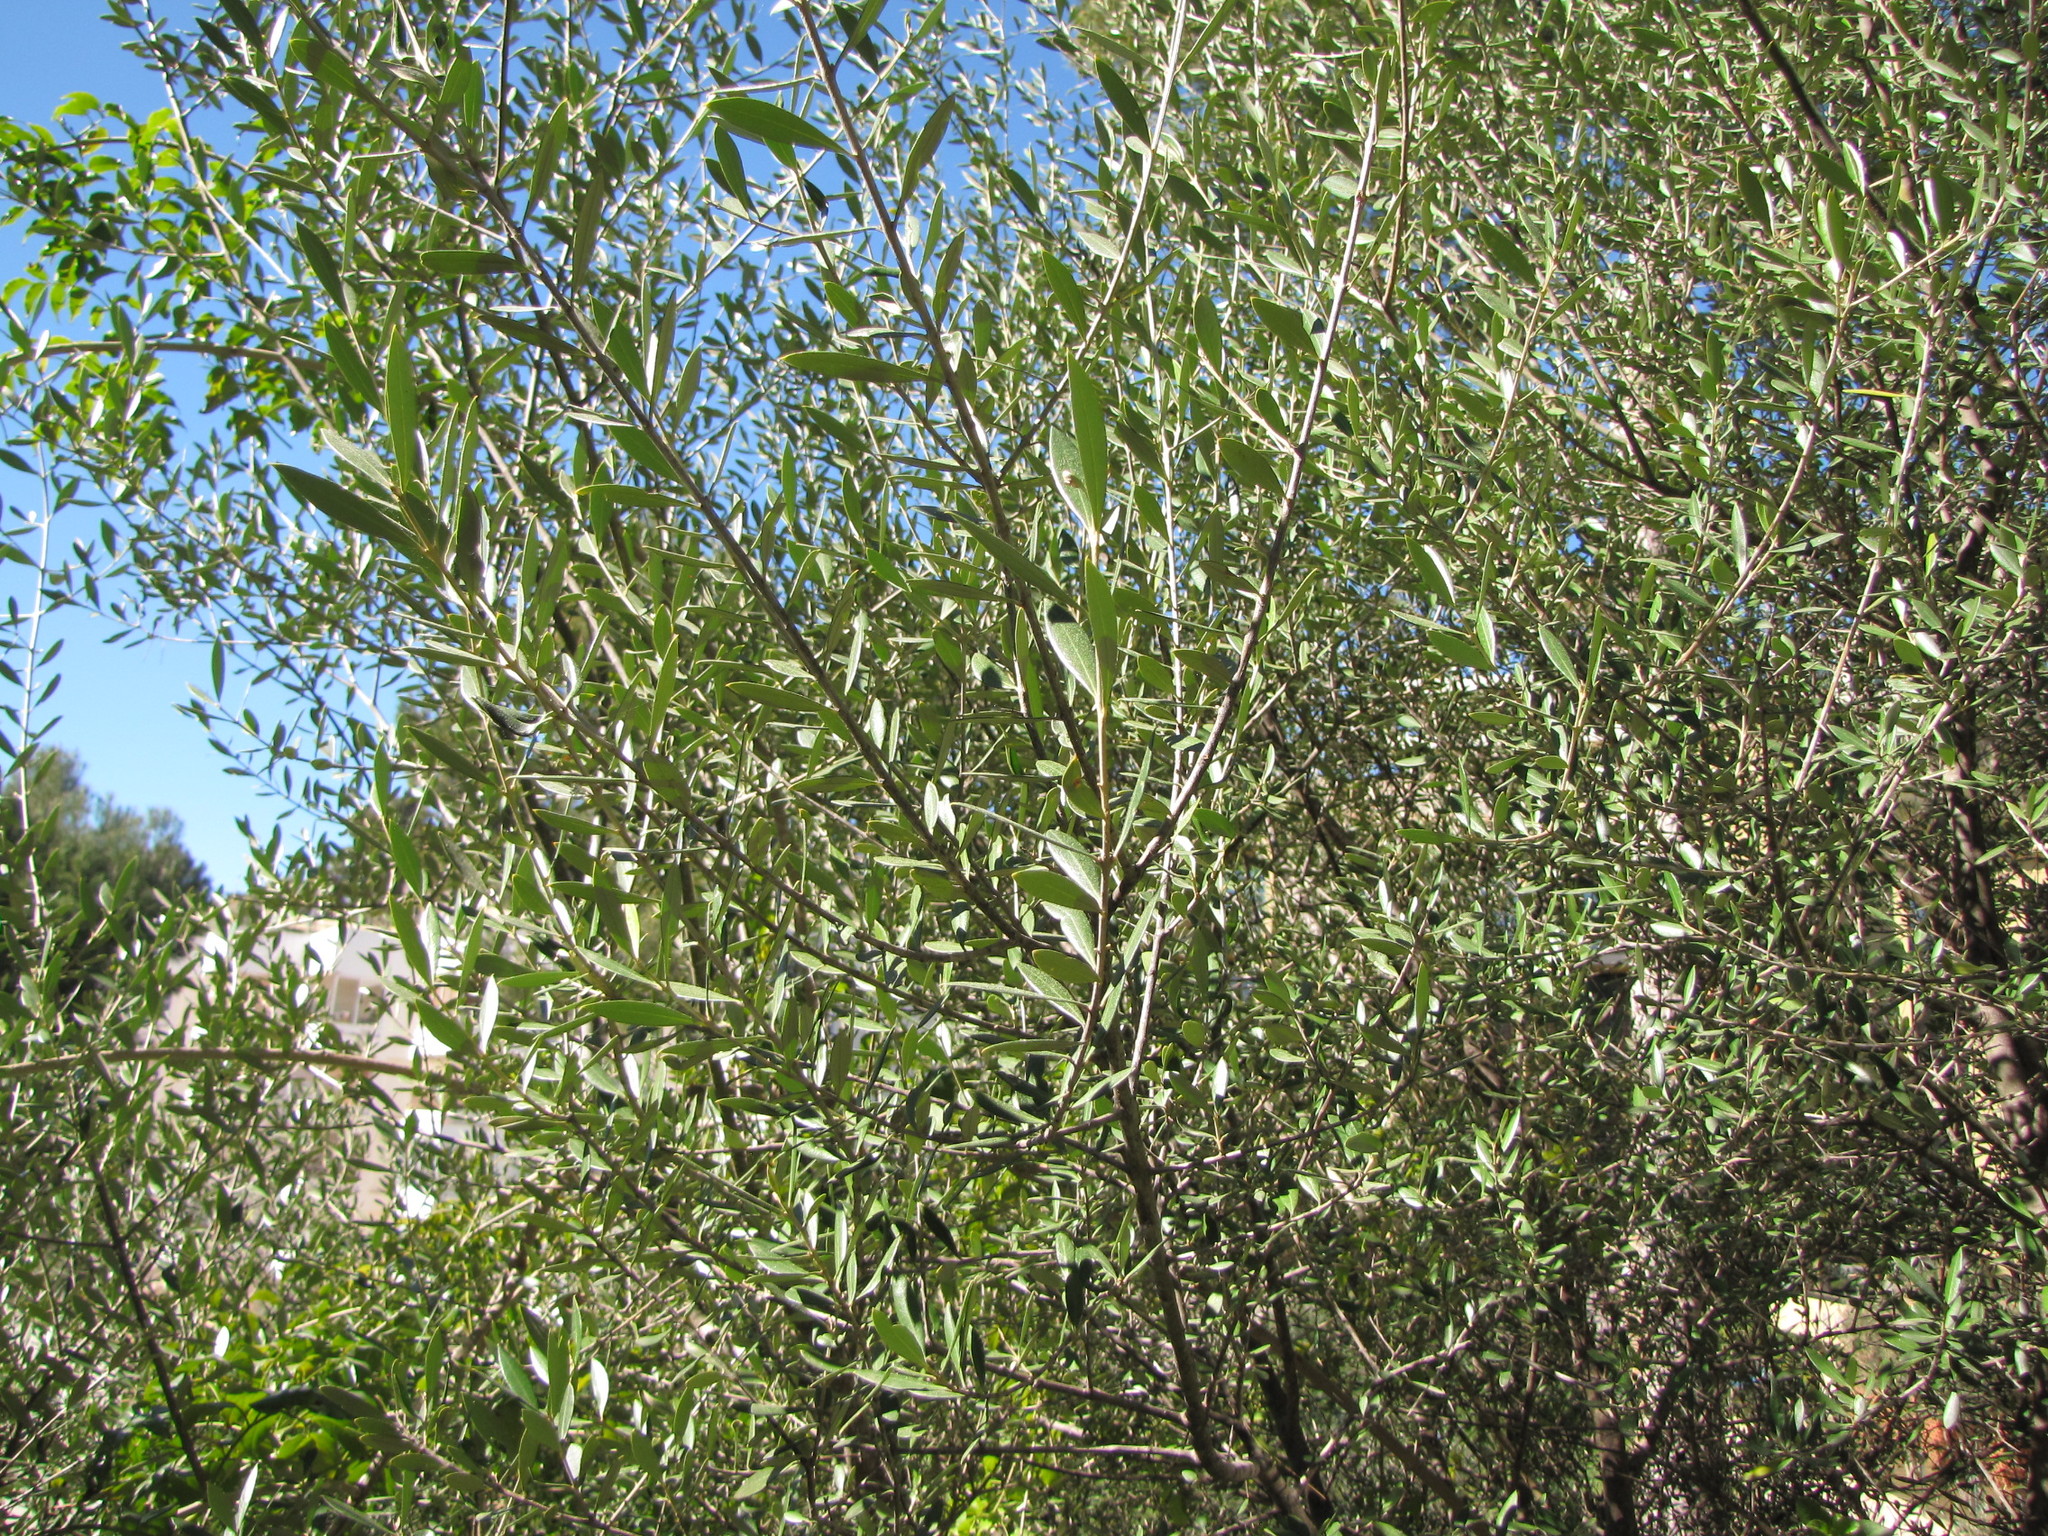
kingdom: Plantae
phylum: Tracheophyta
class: Magnoliopsida
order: Lamiales
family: Oleaceae
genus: Olea
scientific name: Olea europaea
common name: Olive
